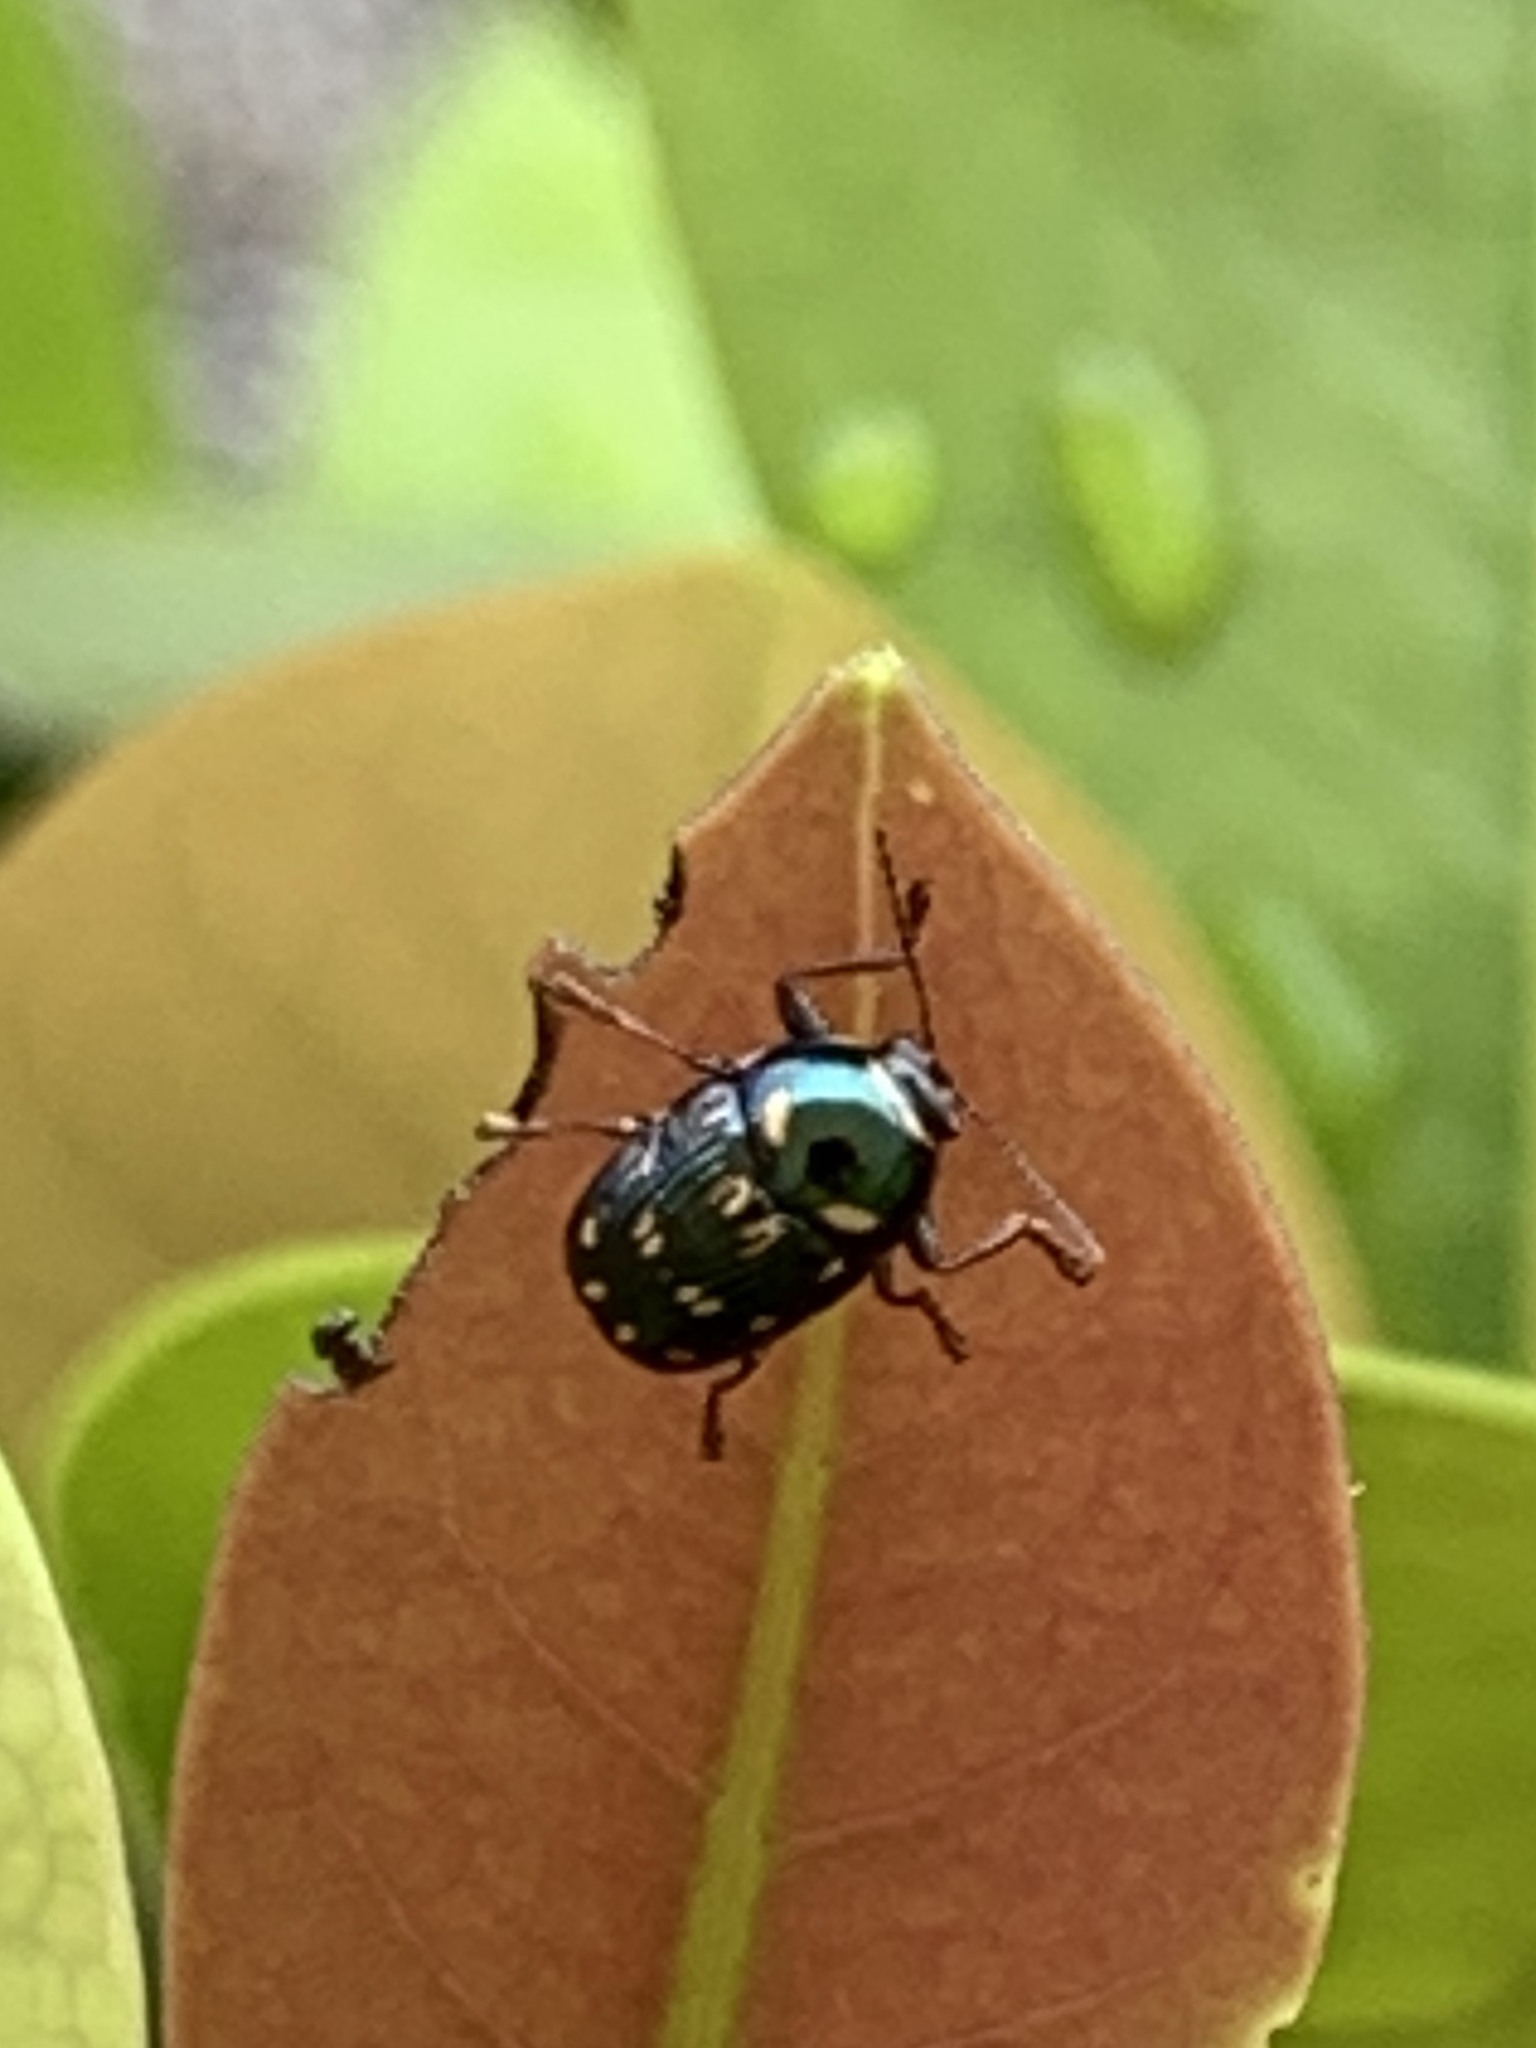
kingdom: Animalia
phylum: Arthropoda
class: Insecta
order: Coleoptera
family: Chrysomelidae
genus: Cryptocephalus
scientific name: Cryptocephalus nigrocinctus
